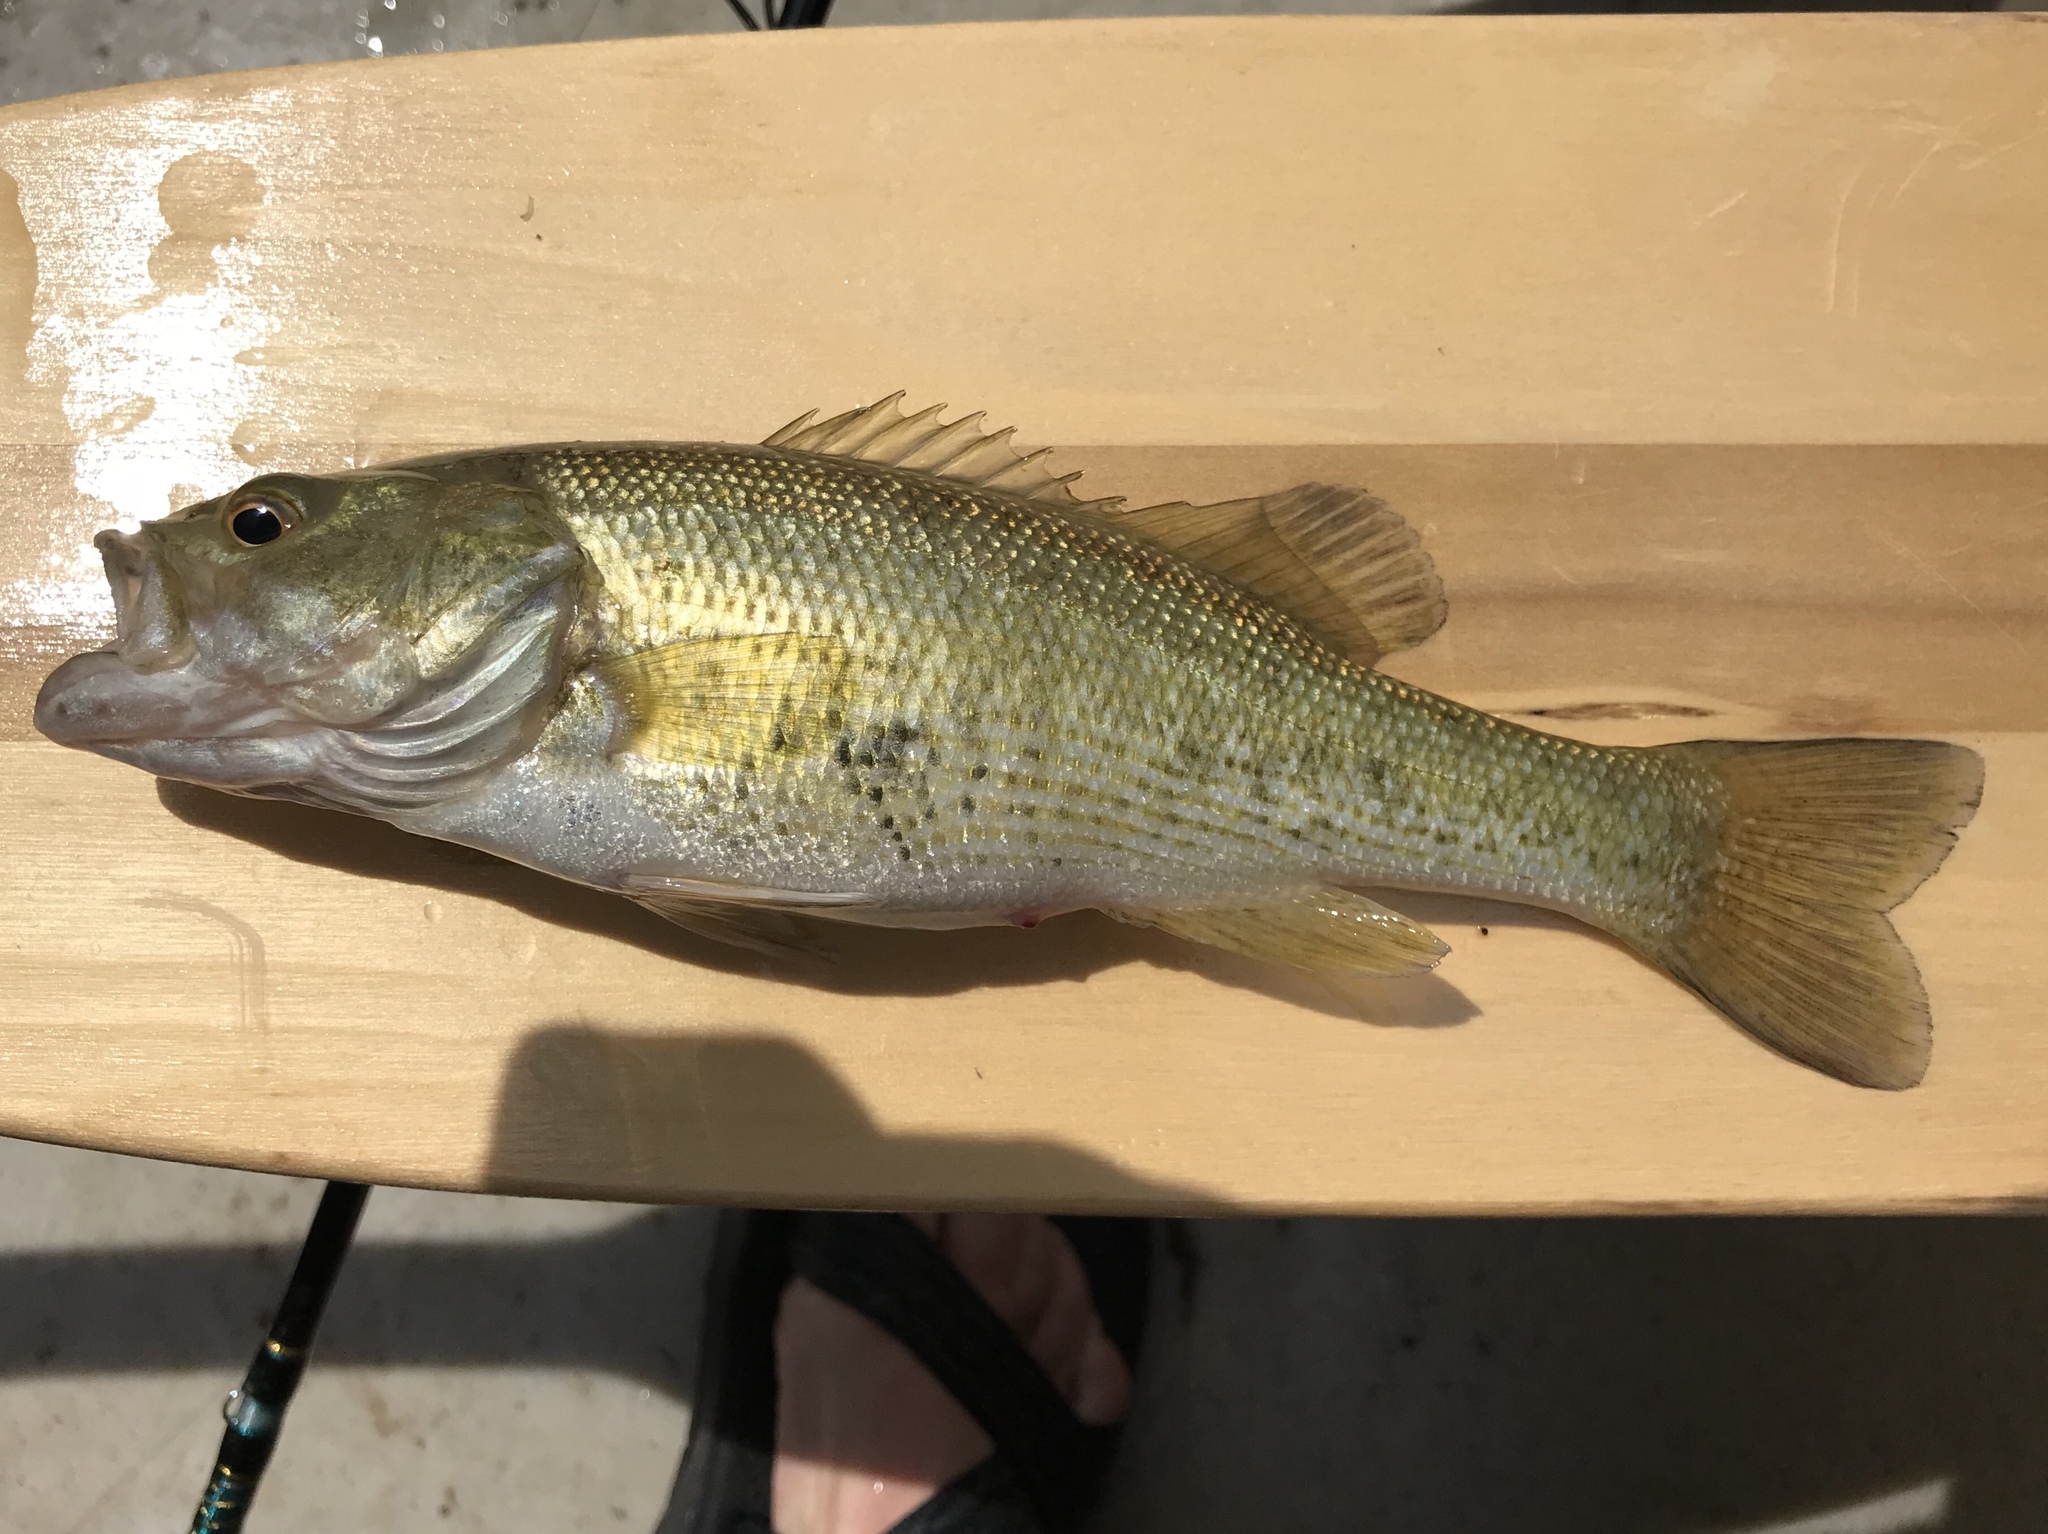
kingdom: Animalia
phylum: Chordata
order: Perciformes
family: Centrarchidae
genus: Micropterus
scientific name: Micropterus treculii
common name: Guadalupe bass
